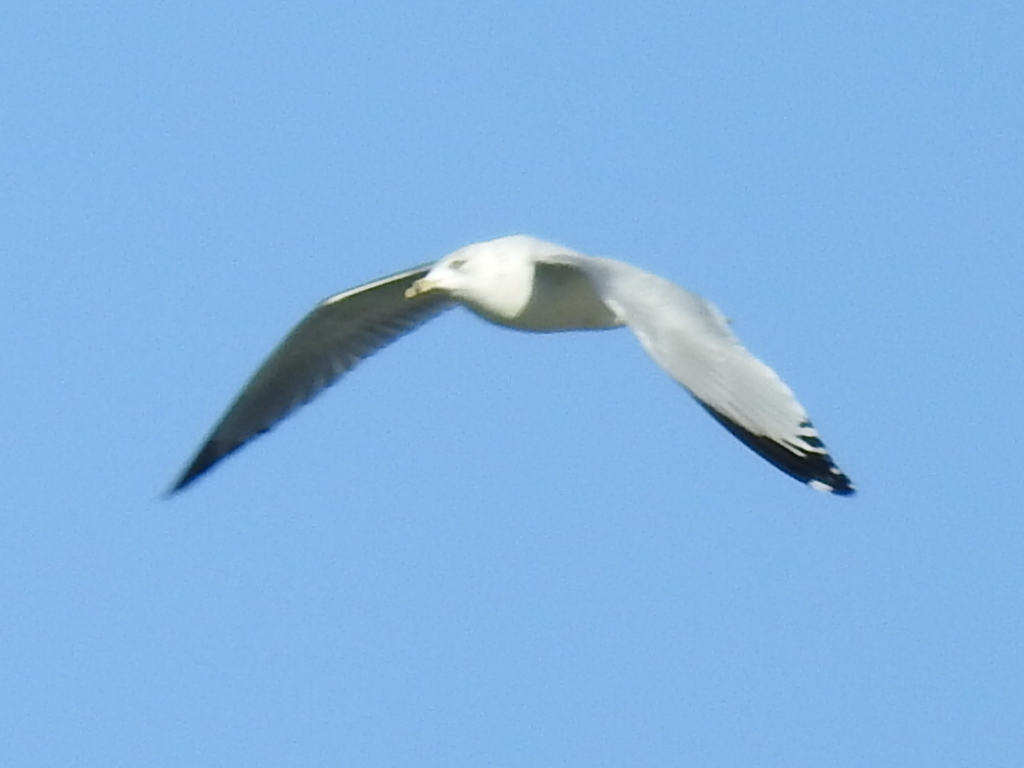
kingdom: Animalia
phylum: Chordata
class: Aves
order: Charadriiformes
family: Laridae
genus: Larus
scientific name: Larus delawarensis
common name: Ring-billed gull
